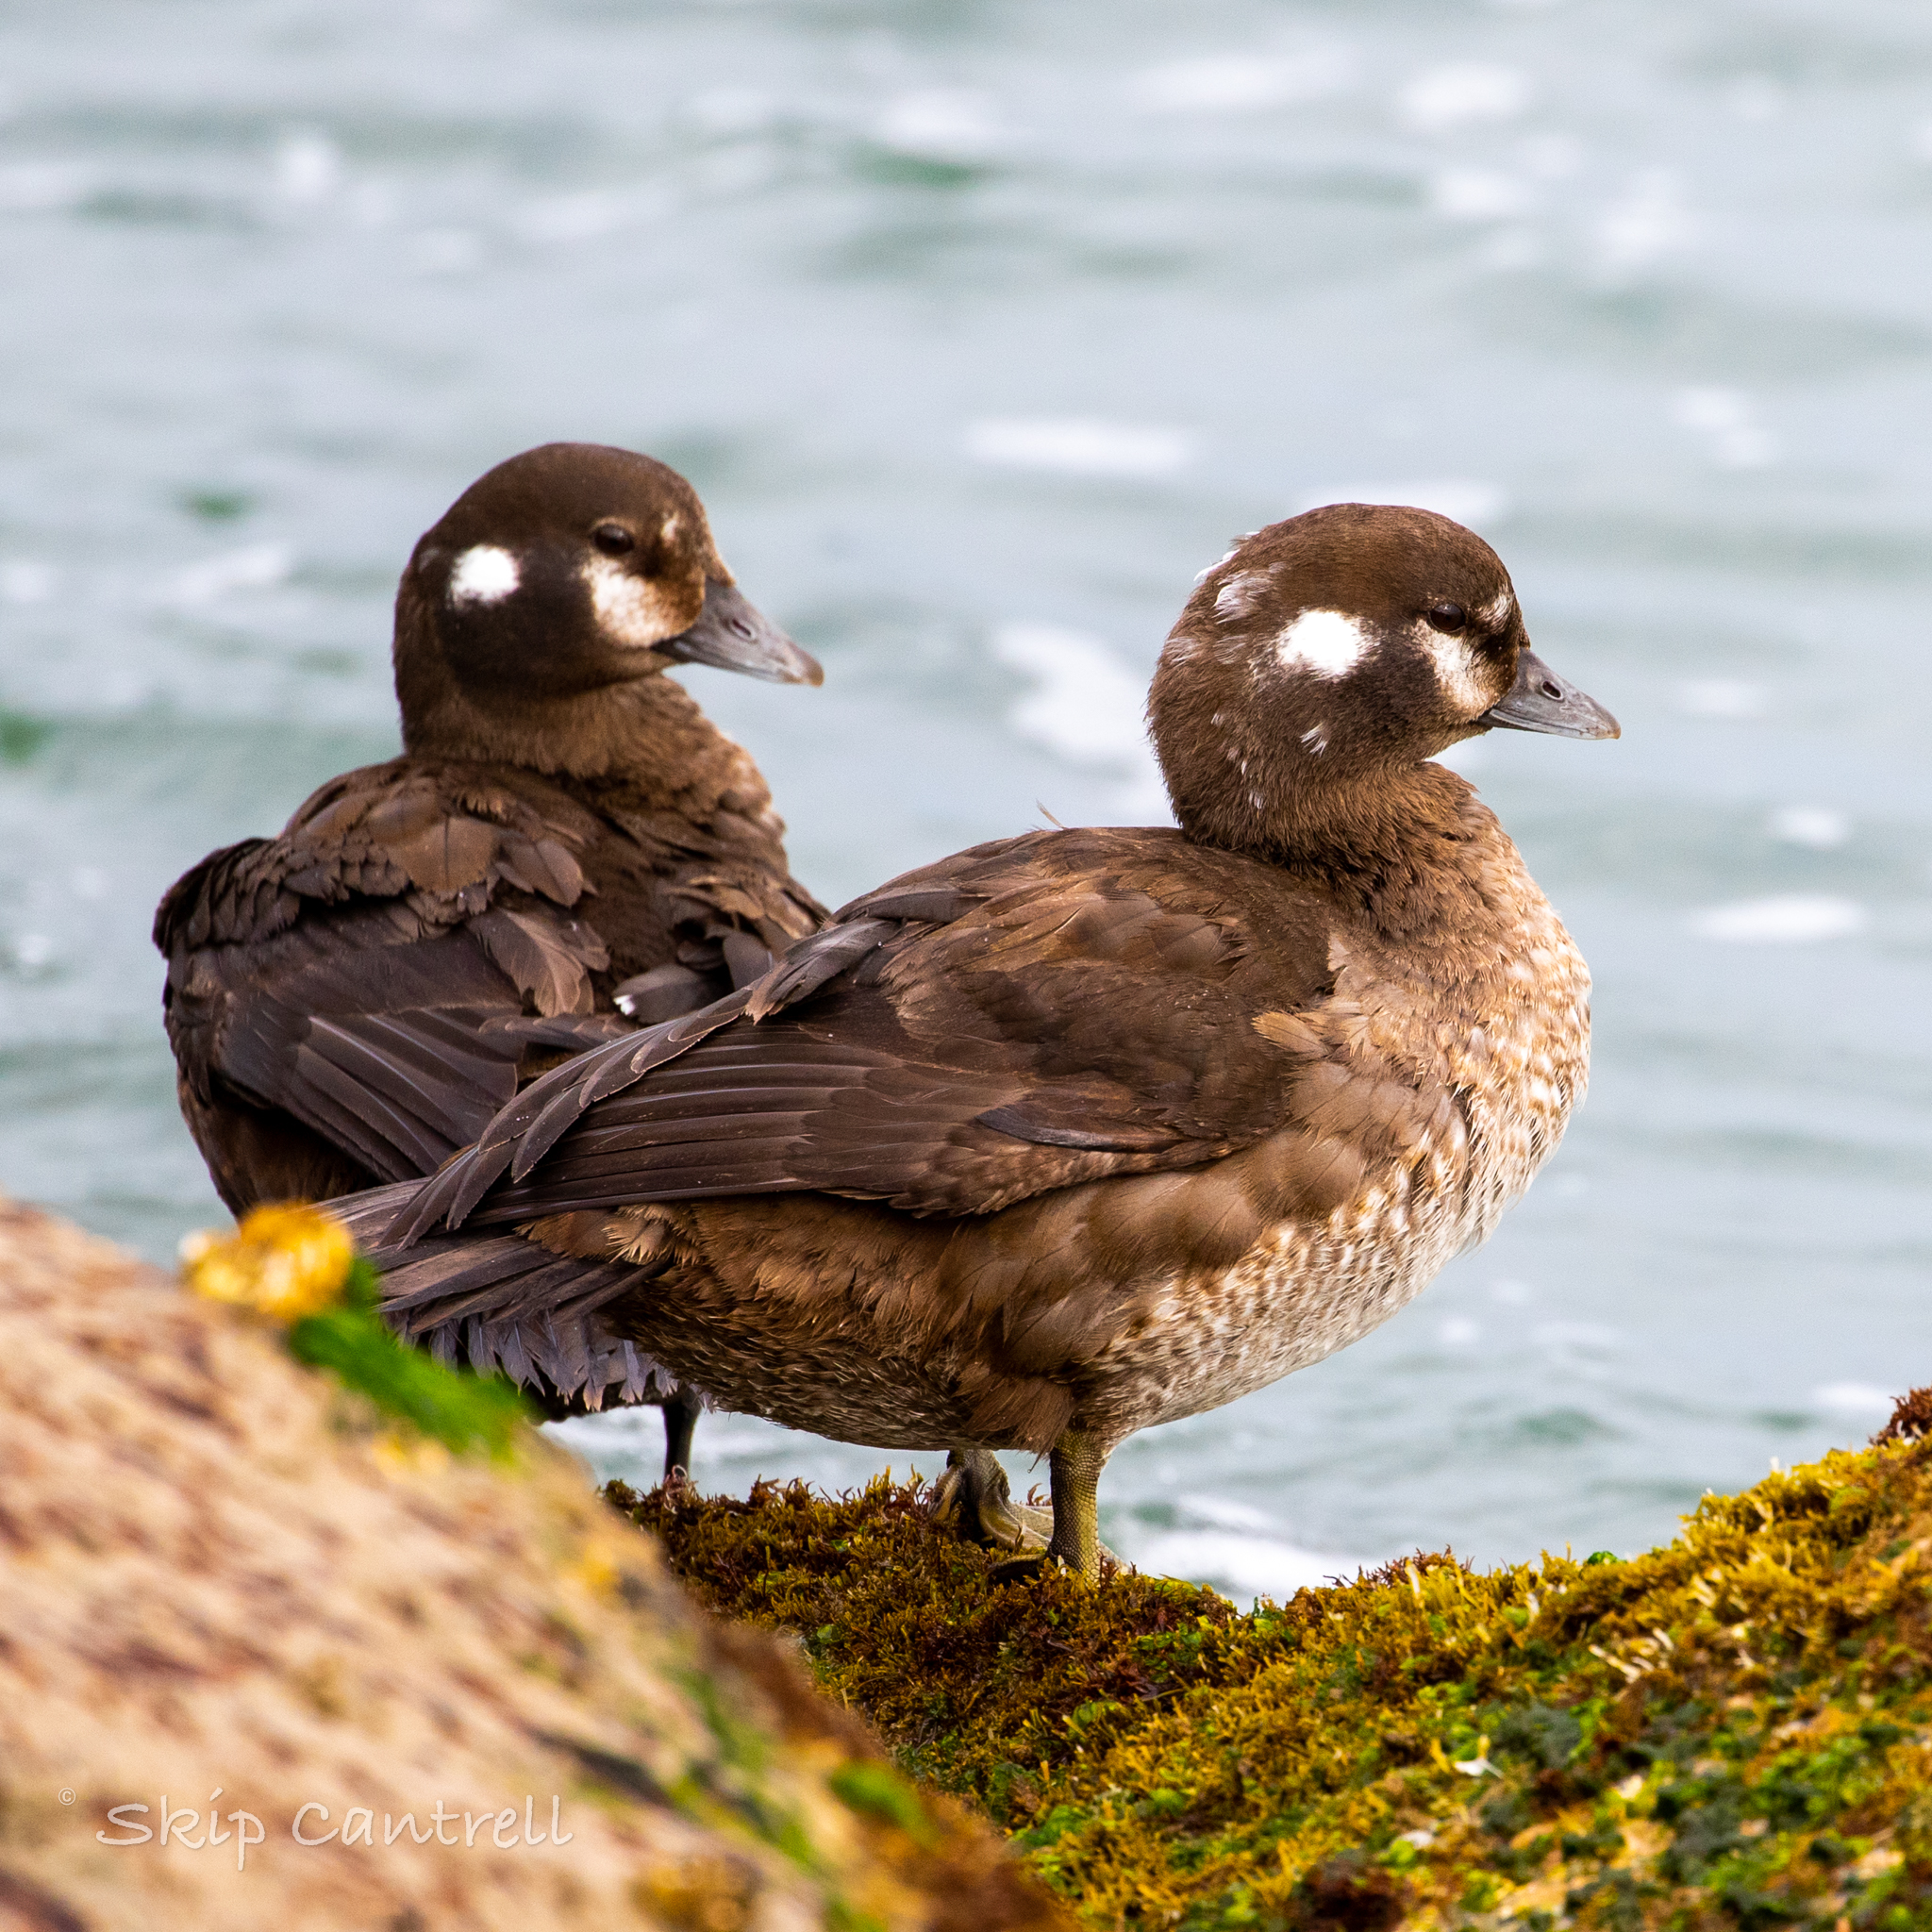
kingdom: Animalia
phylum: Chordata
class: Aves
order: Anseriformes
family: Anatidae
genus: Histrionicus
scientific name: Histrionicus histrionicus
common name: Harlequin duck
